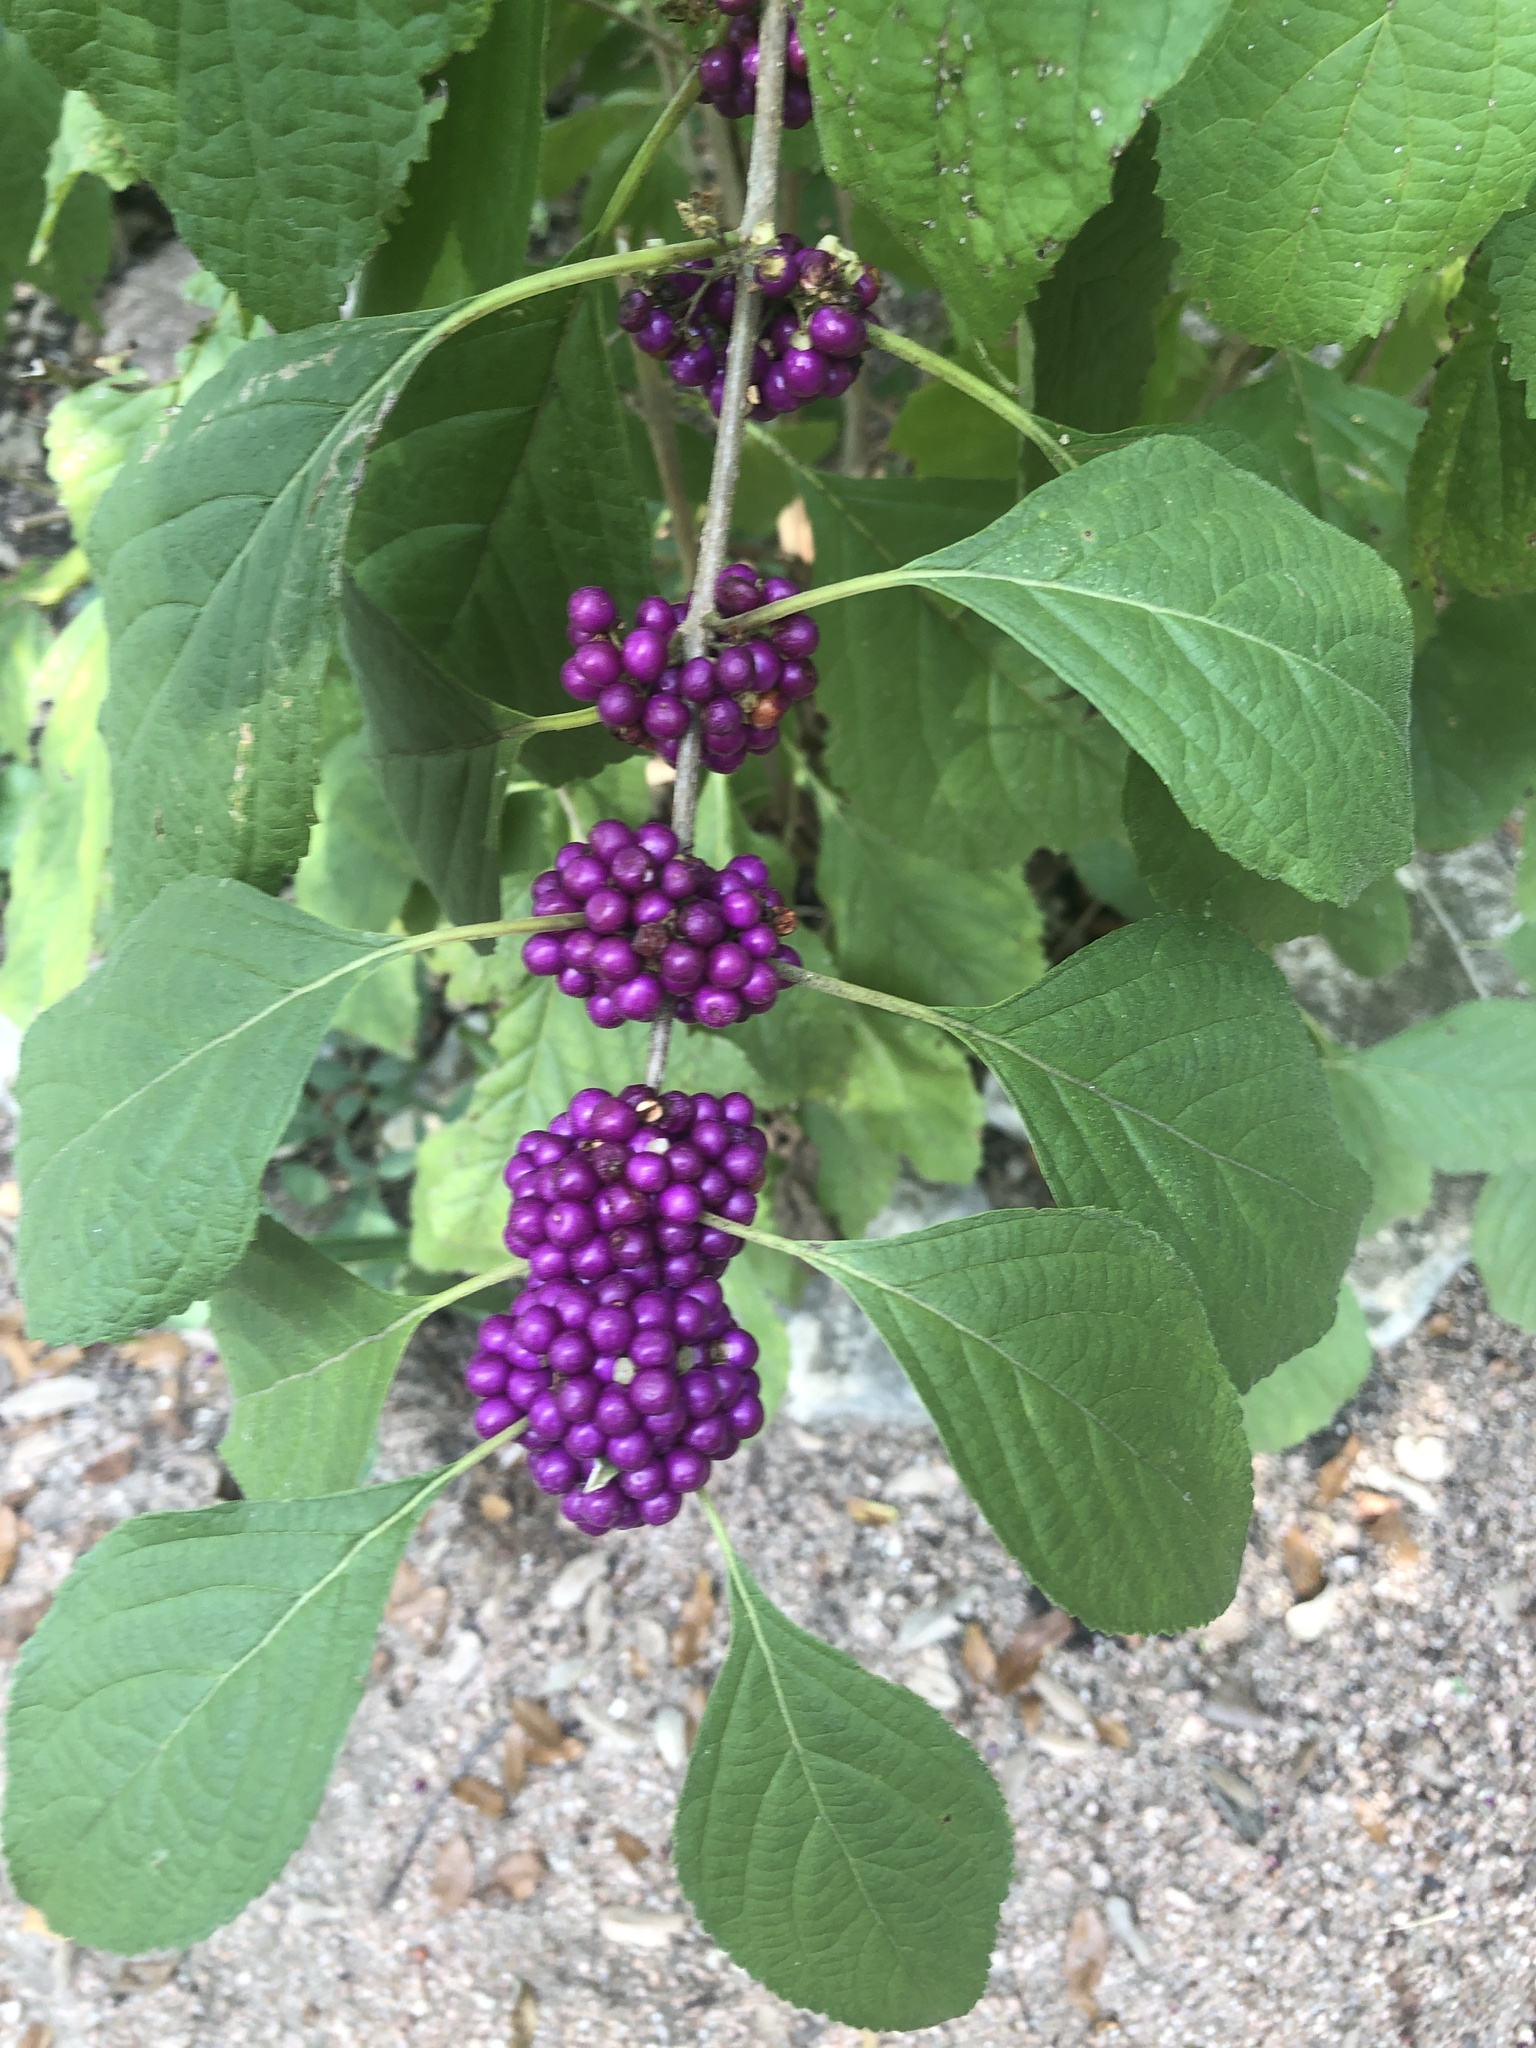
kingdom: Plantae
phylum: Tracheophyta
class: Magnoliopsida
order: Lamiales
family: Lamiaceae
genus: Callicarpa
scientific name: Callicarpa americana
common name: American beautyberry
